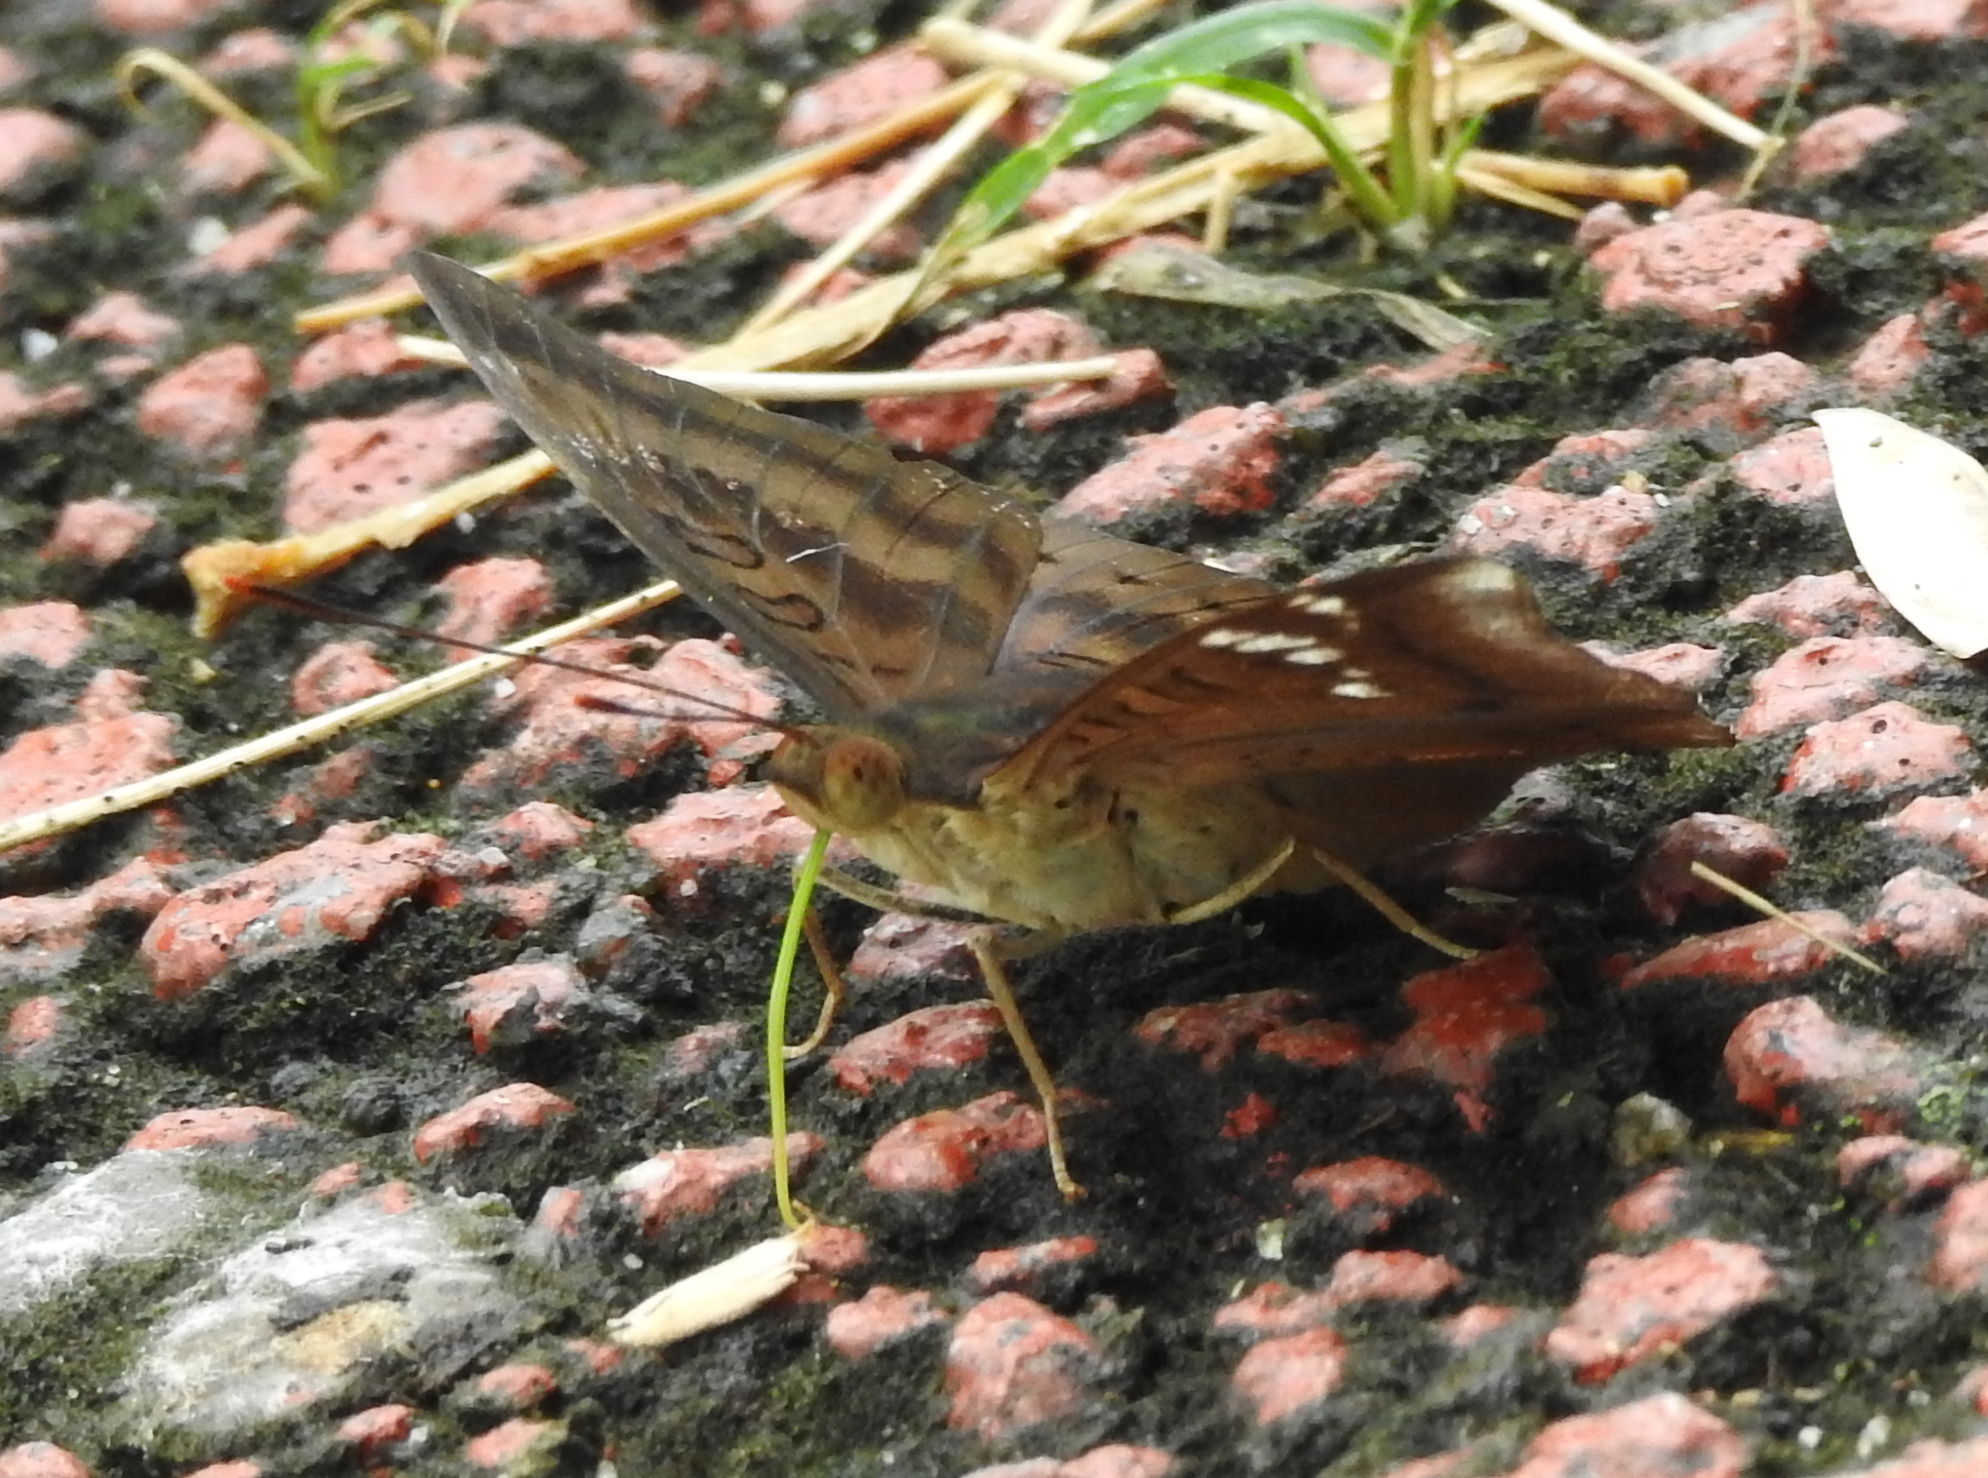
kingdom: Animalia
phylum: Arthropoda
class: Insecta
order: Lepidoptera
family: Nymphalidae
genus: Euthalia
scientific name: Euthalia aconthea
